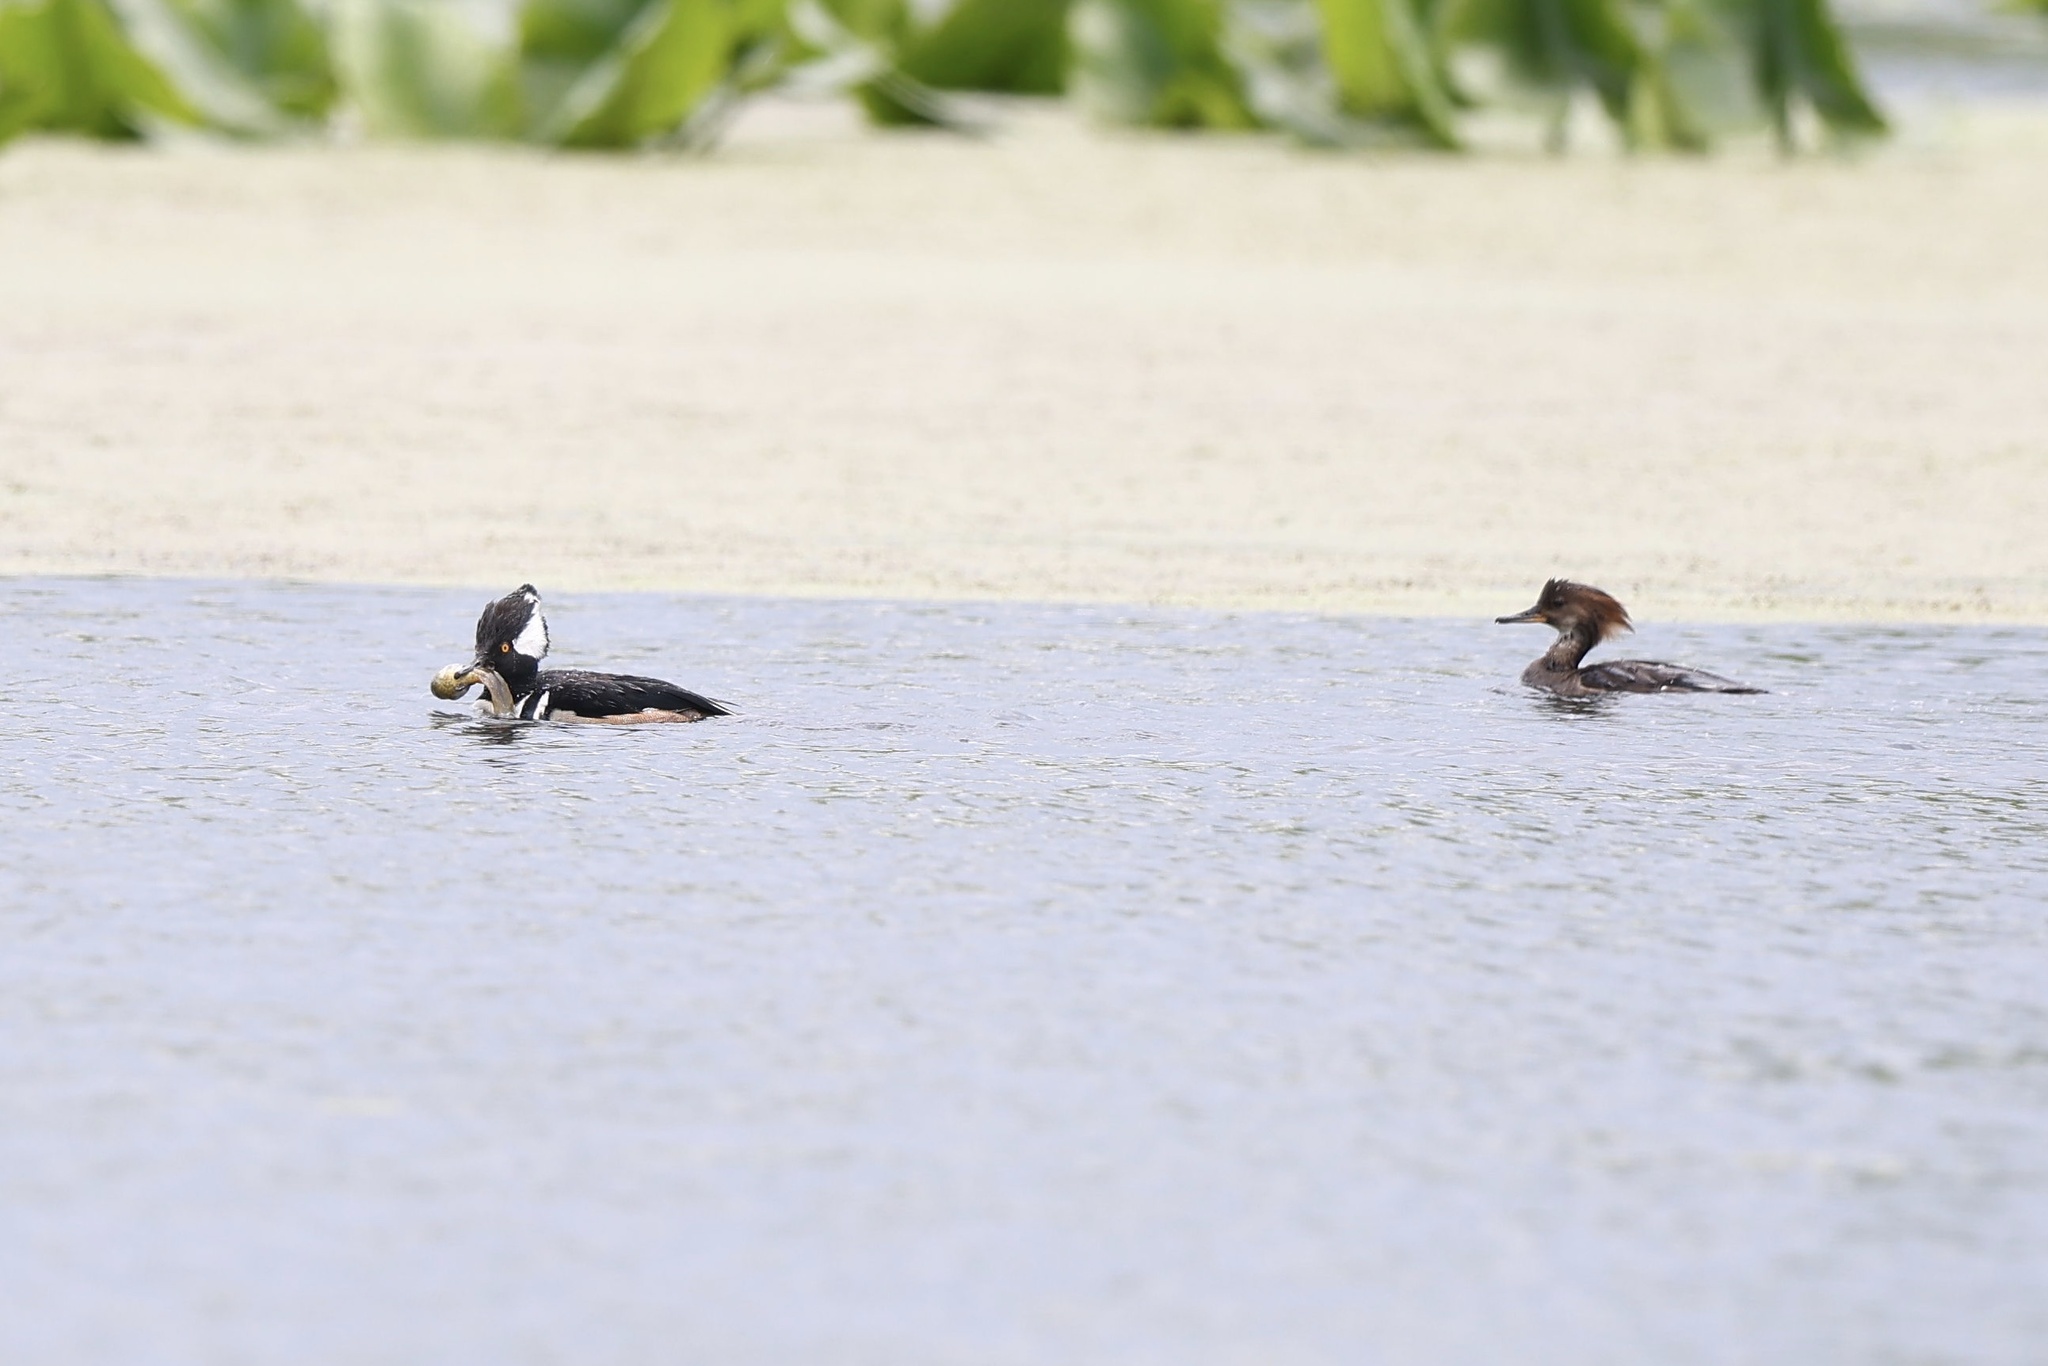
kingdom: Animalia
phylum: Chordata
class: Aves
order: Anseriformes
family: Anatidae
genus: Lophodytes
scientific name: Lophodytes cucullatus
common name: Hooded merganser
